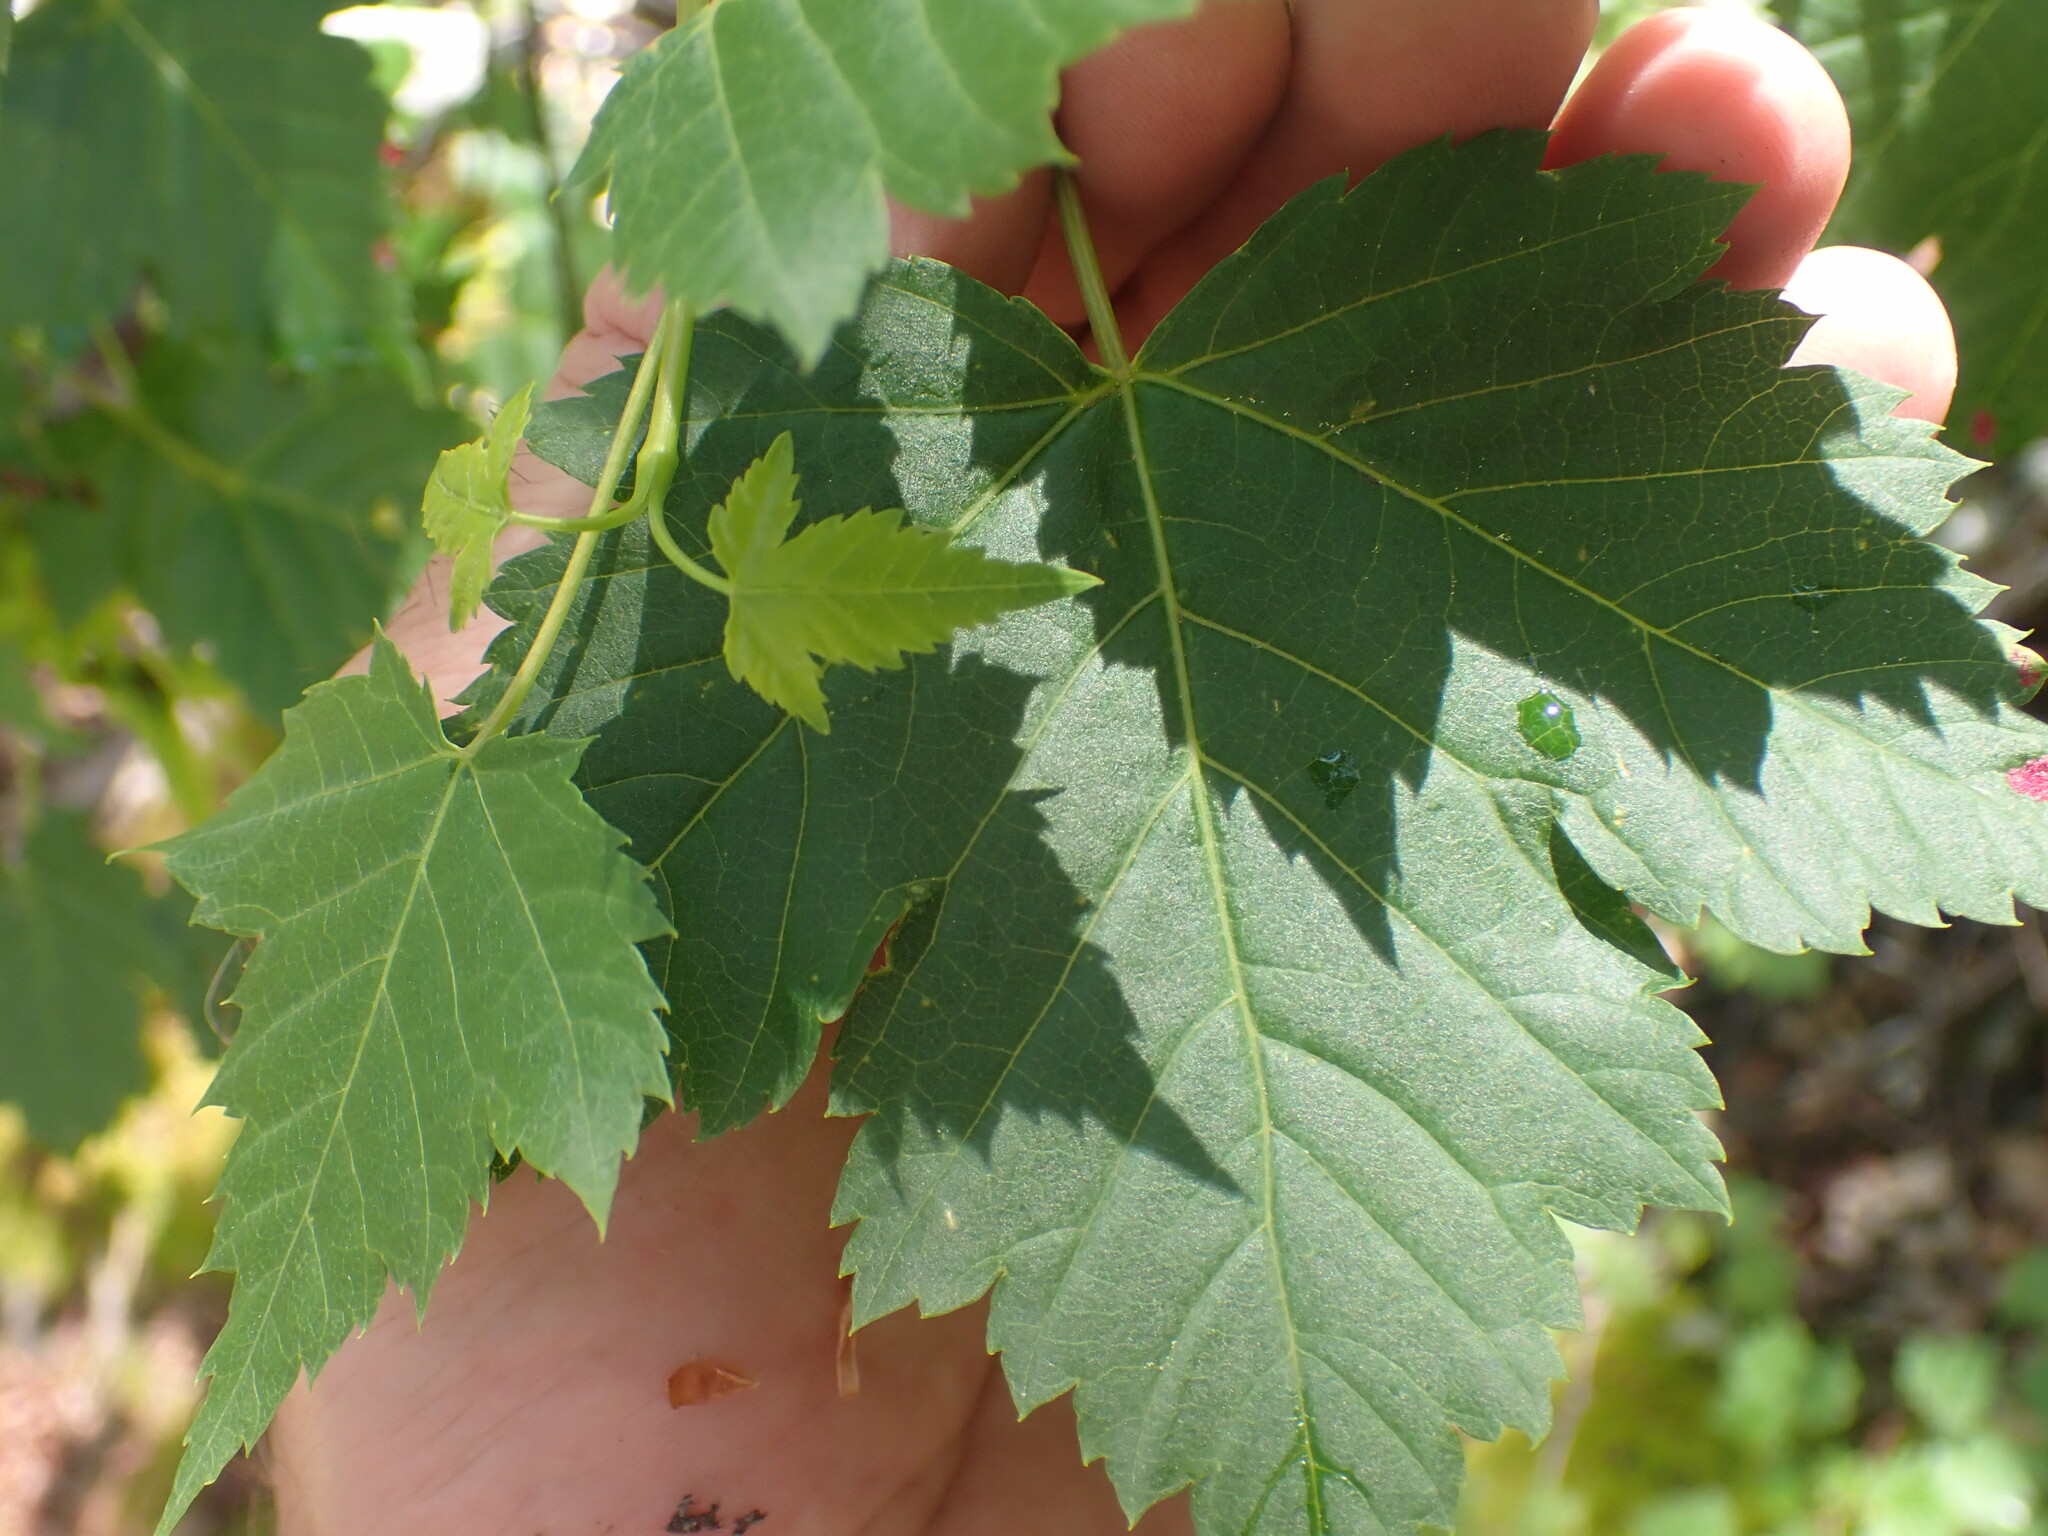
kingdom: Plantae
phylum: Tracheophyta
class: Magnoliopsida
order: Sapindales
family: Sapindaceae
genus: Acer
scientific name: Acer glabrum
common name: Rocky mountain maple
